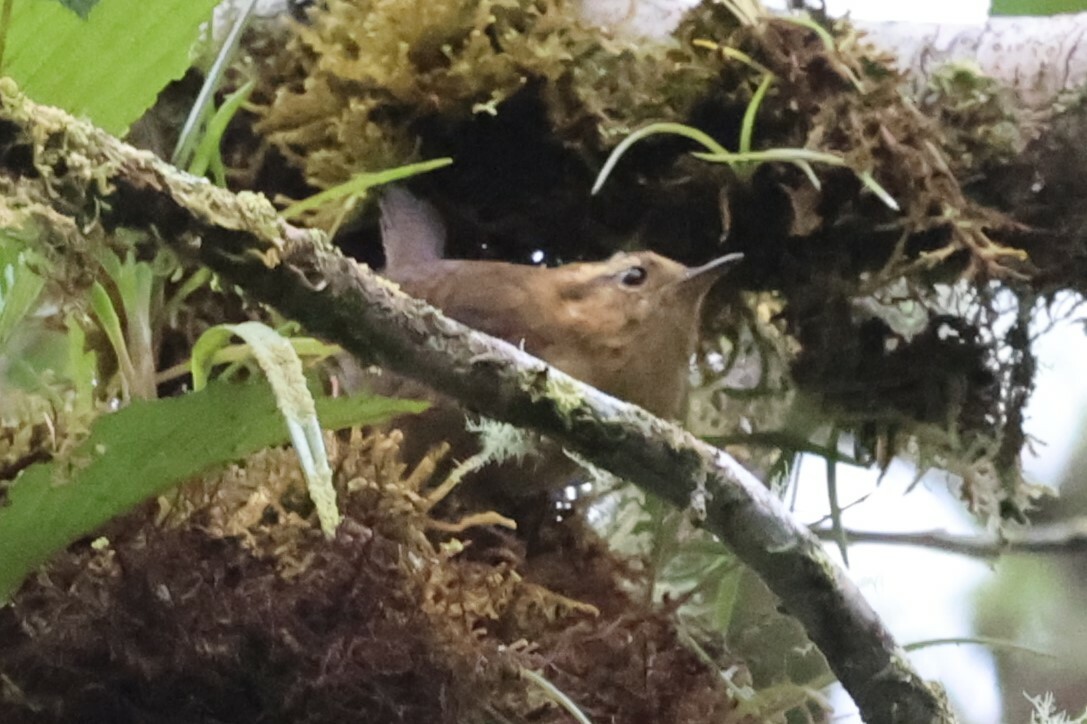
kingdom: Animalia
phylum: Chordata
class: Aves
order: Passeriformes
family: Troglodytidae
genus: Troglodytes
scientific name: Troglodytes solstitialis
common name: Mountain wren
